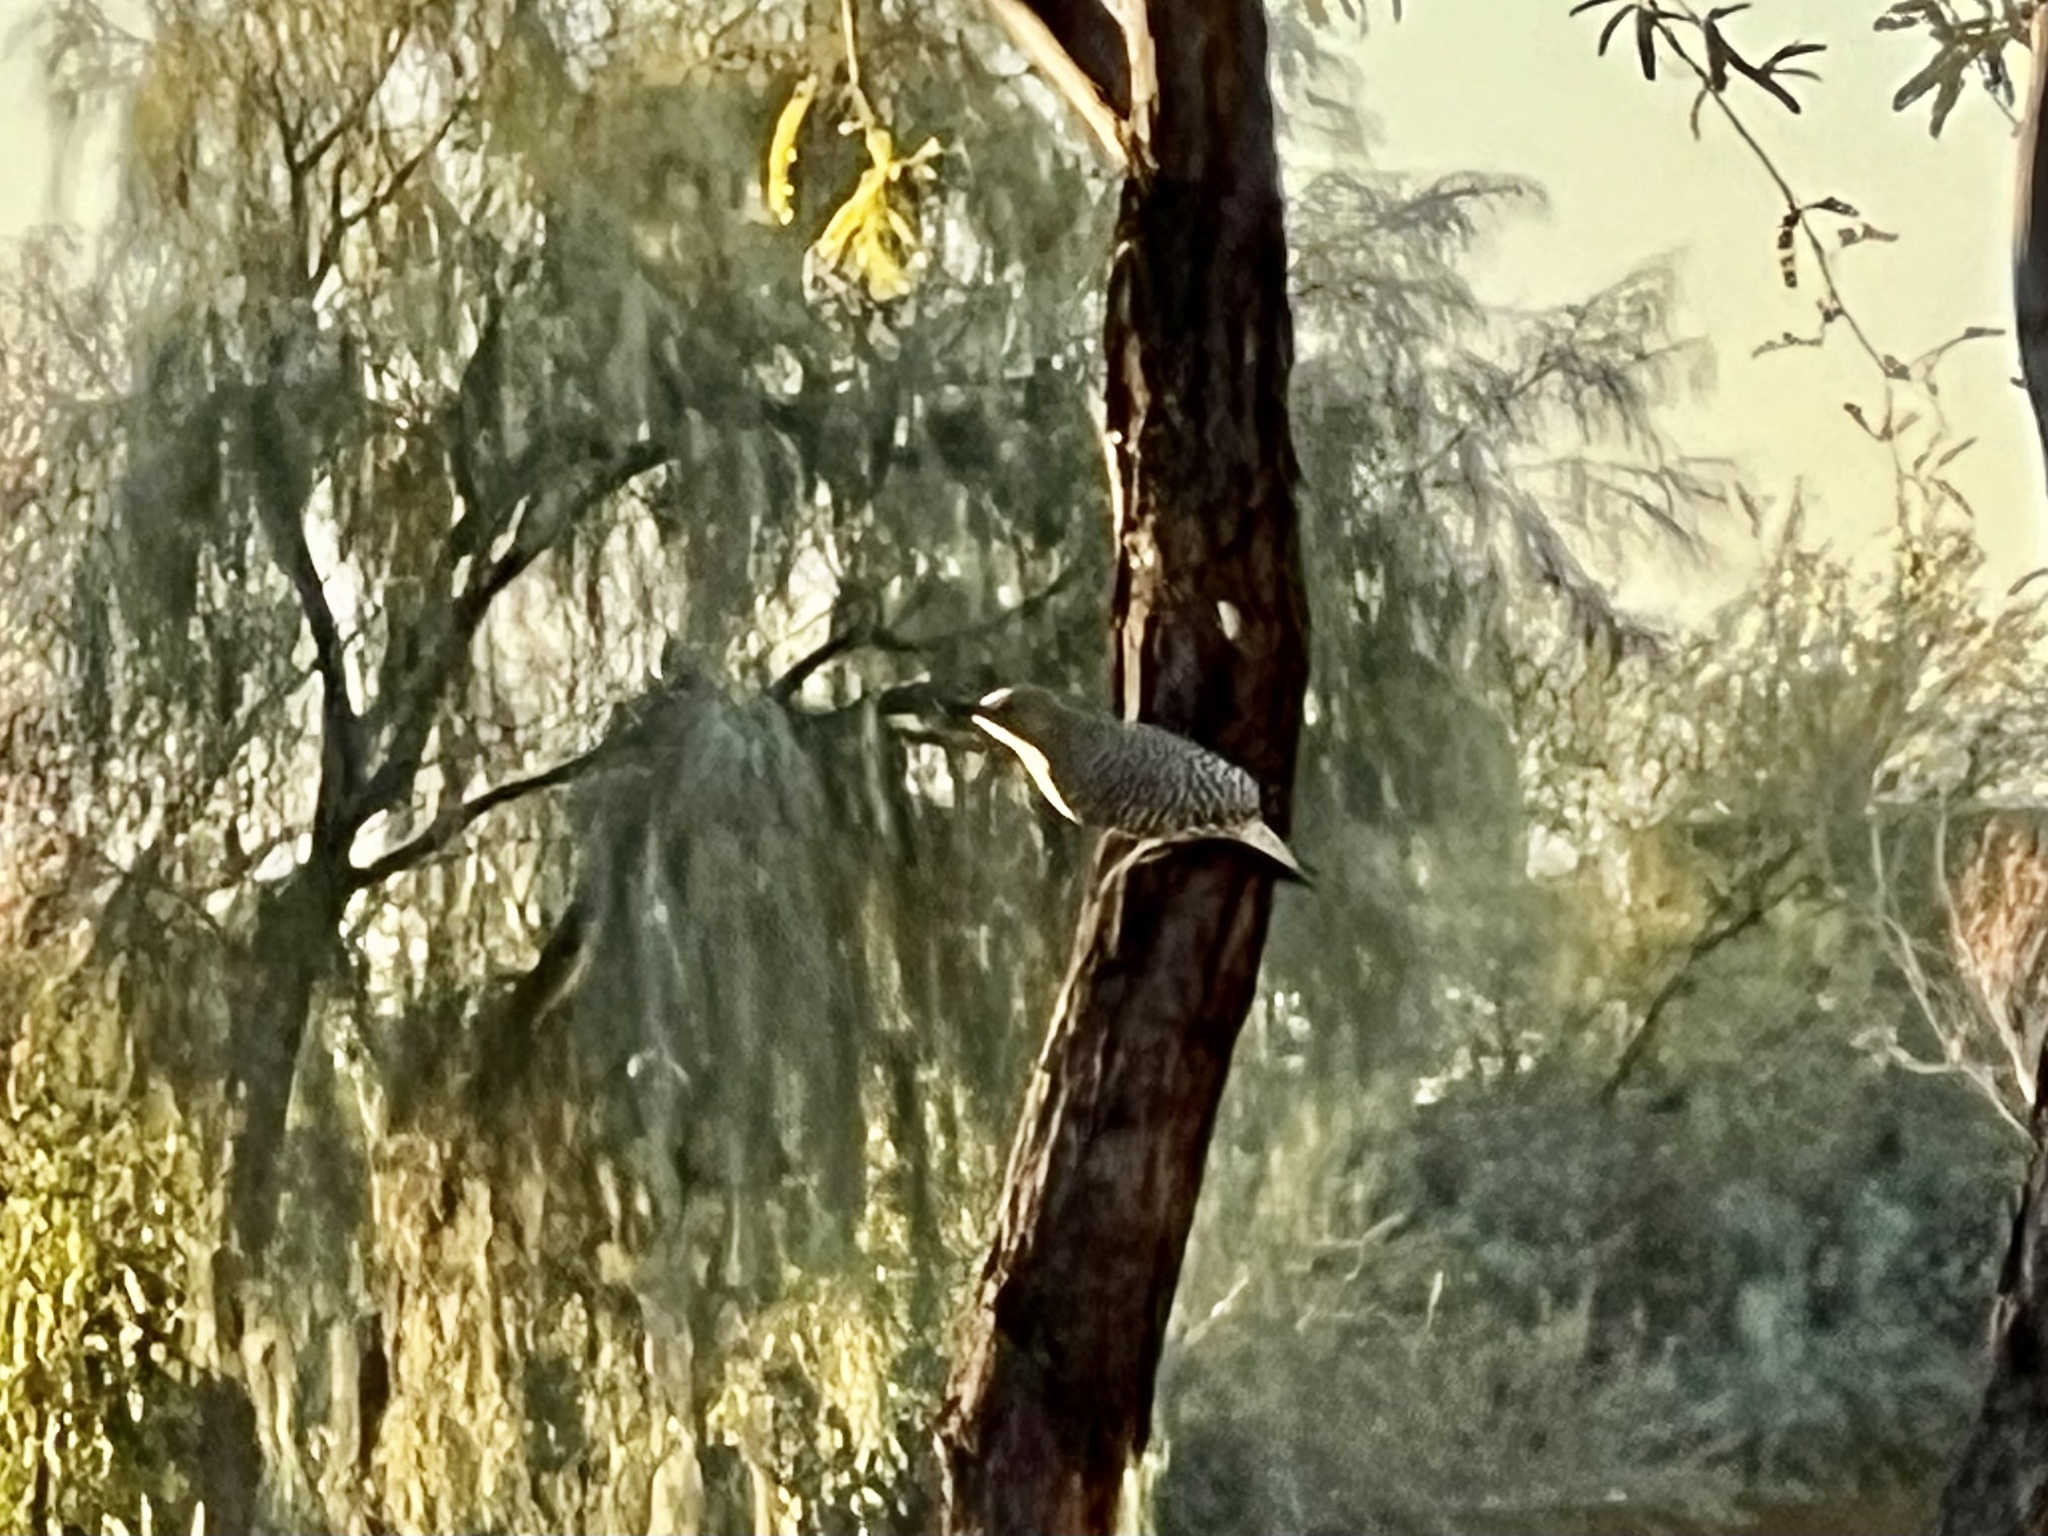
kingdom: Animalia
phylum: Chordata
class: Aves
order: Piciformes
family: Picidae
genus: Melanerpes
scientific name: Melanerpes uropygialis
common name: Gila woodpecker
